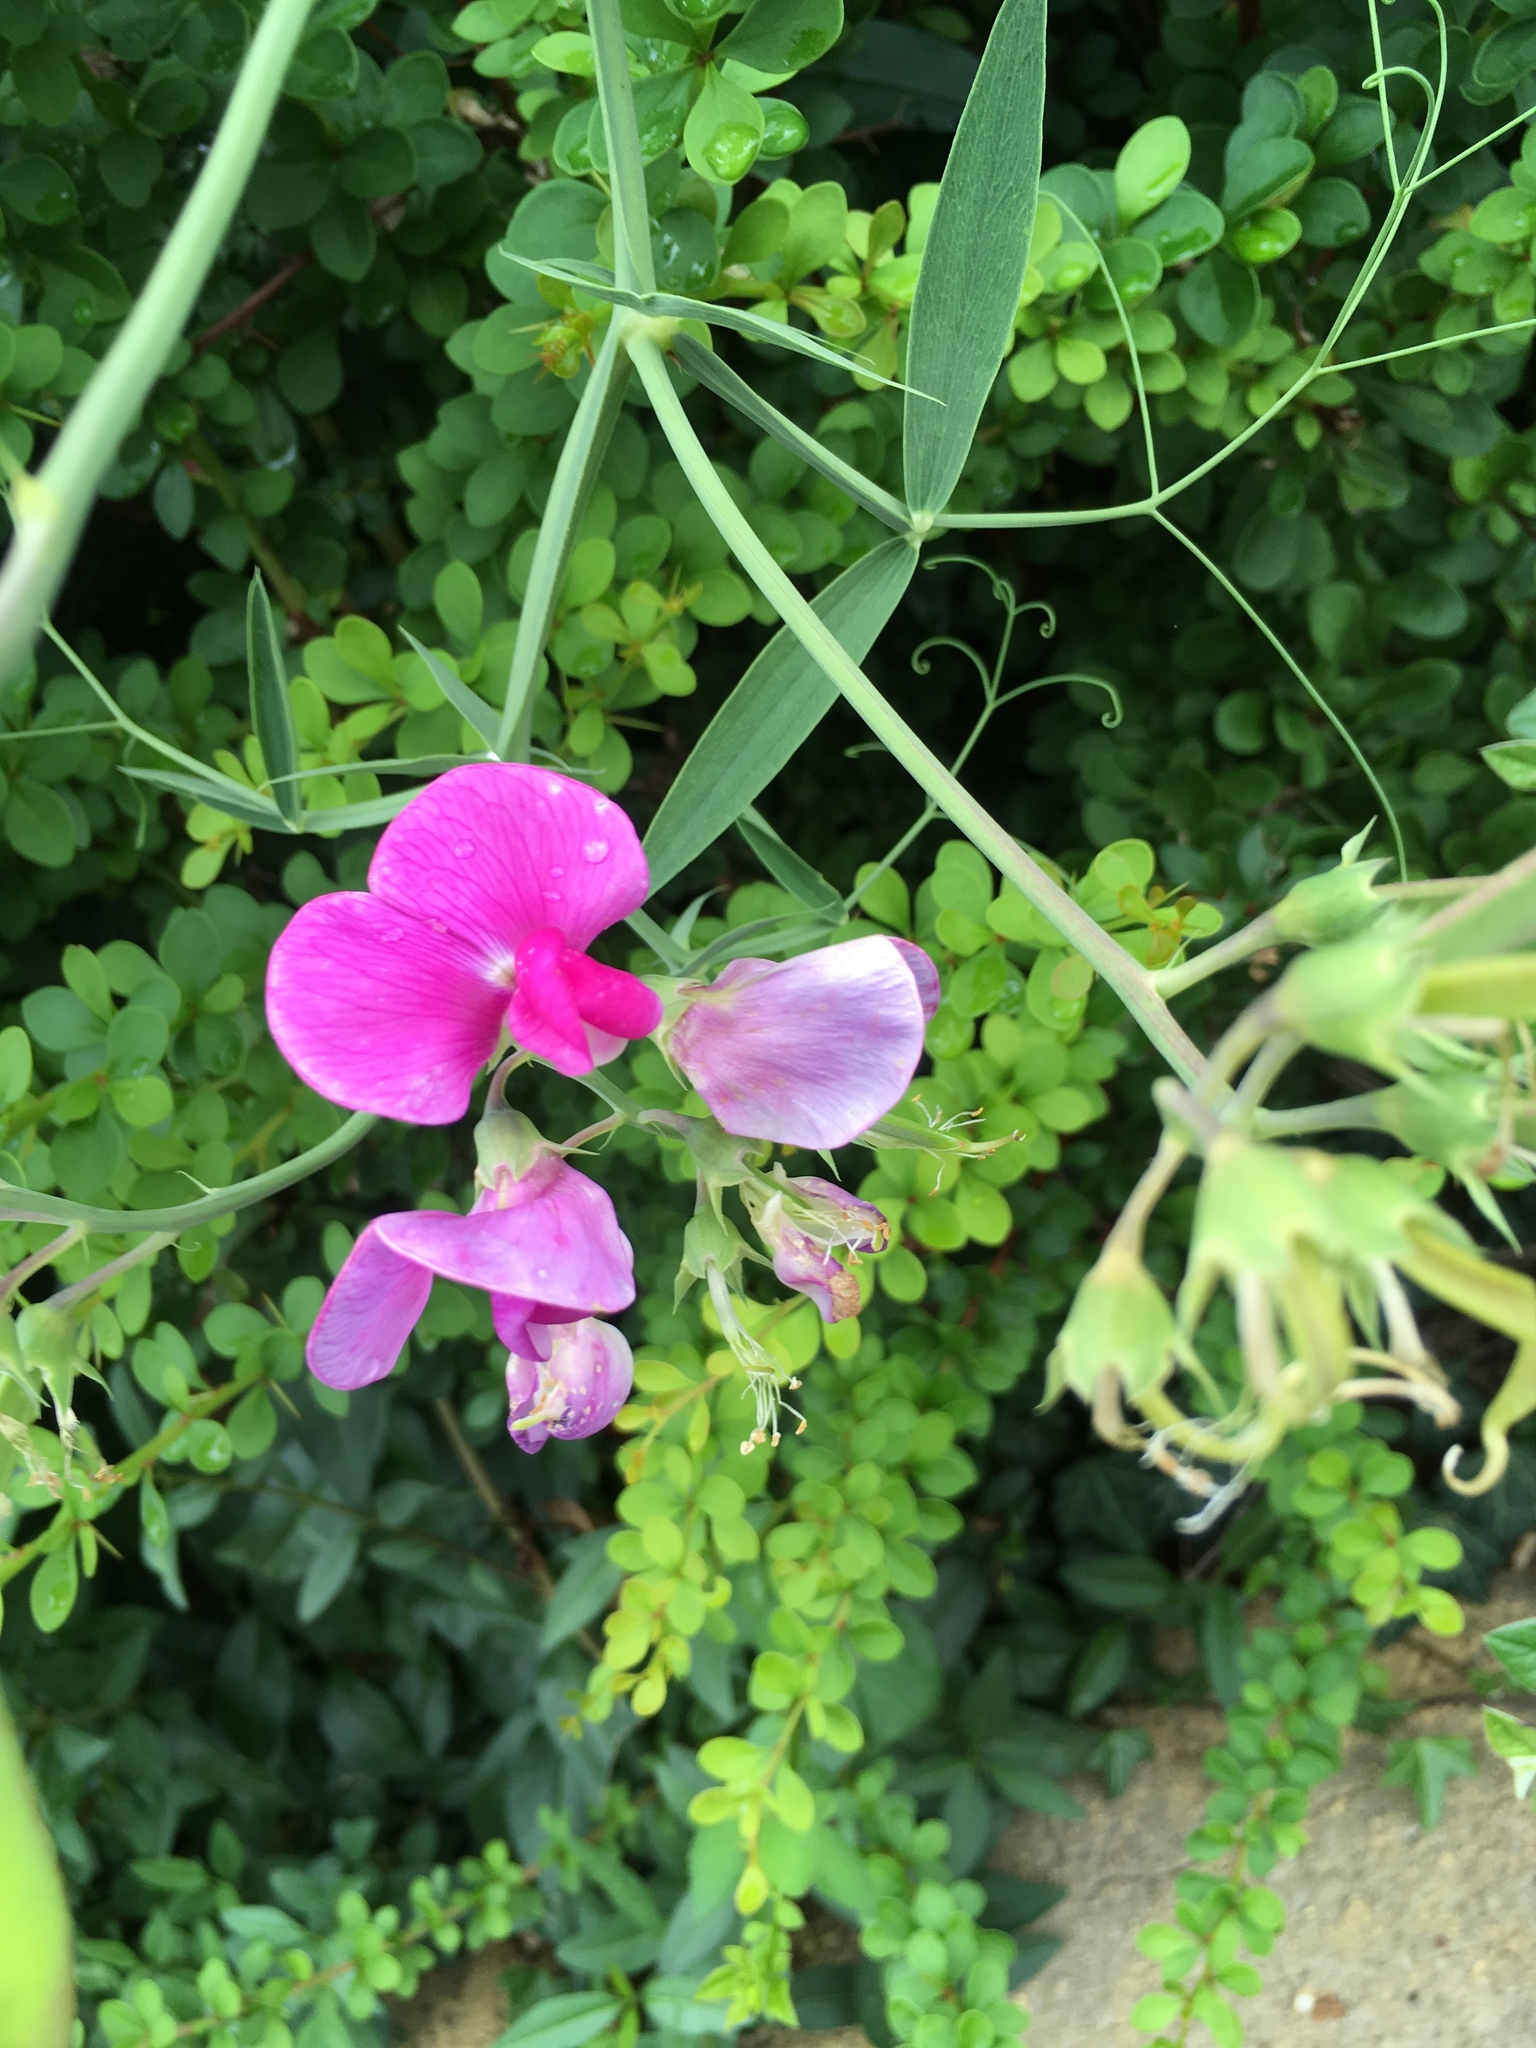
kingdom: Plantae
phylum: Tracheophyta
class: Magnoliopsida
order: Fabales
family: Fabaceae
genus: Lathyrus
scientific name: Lathyrus latifolius
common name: Perennial pea
